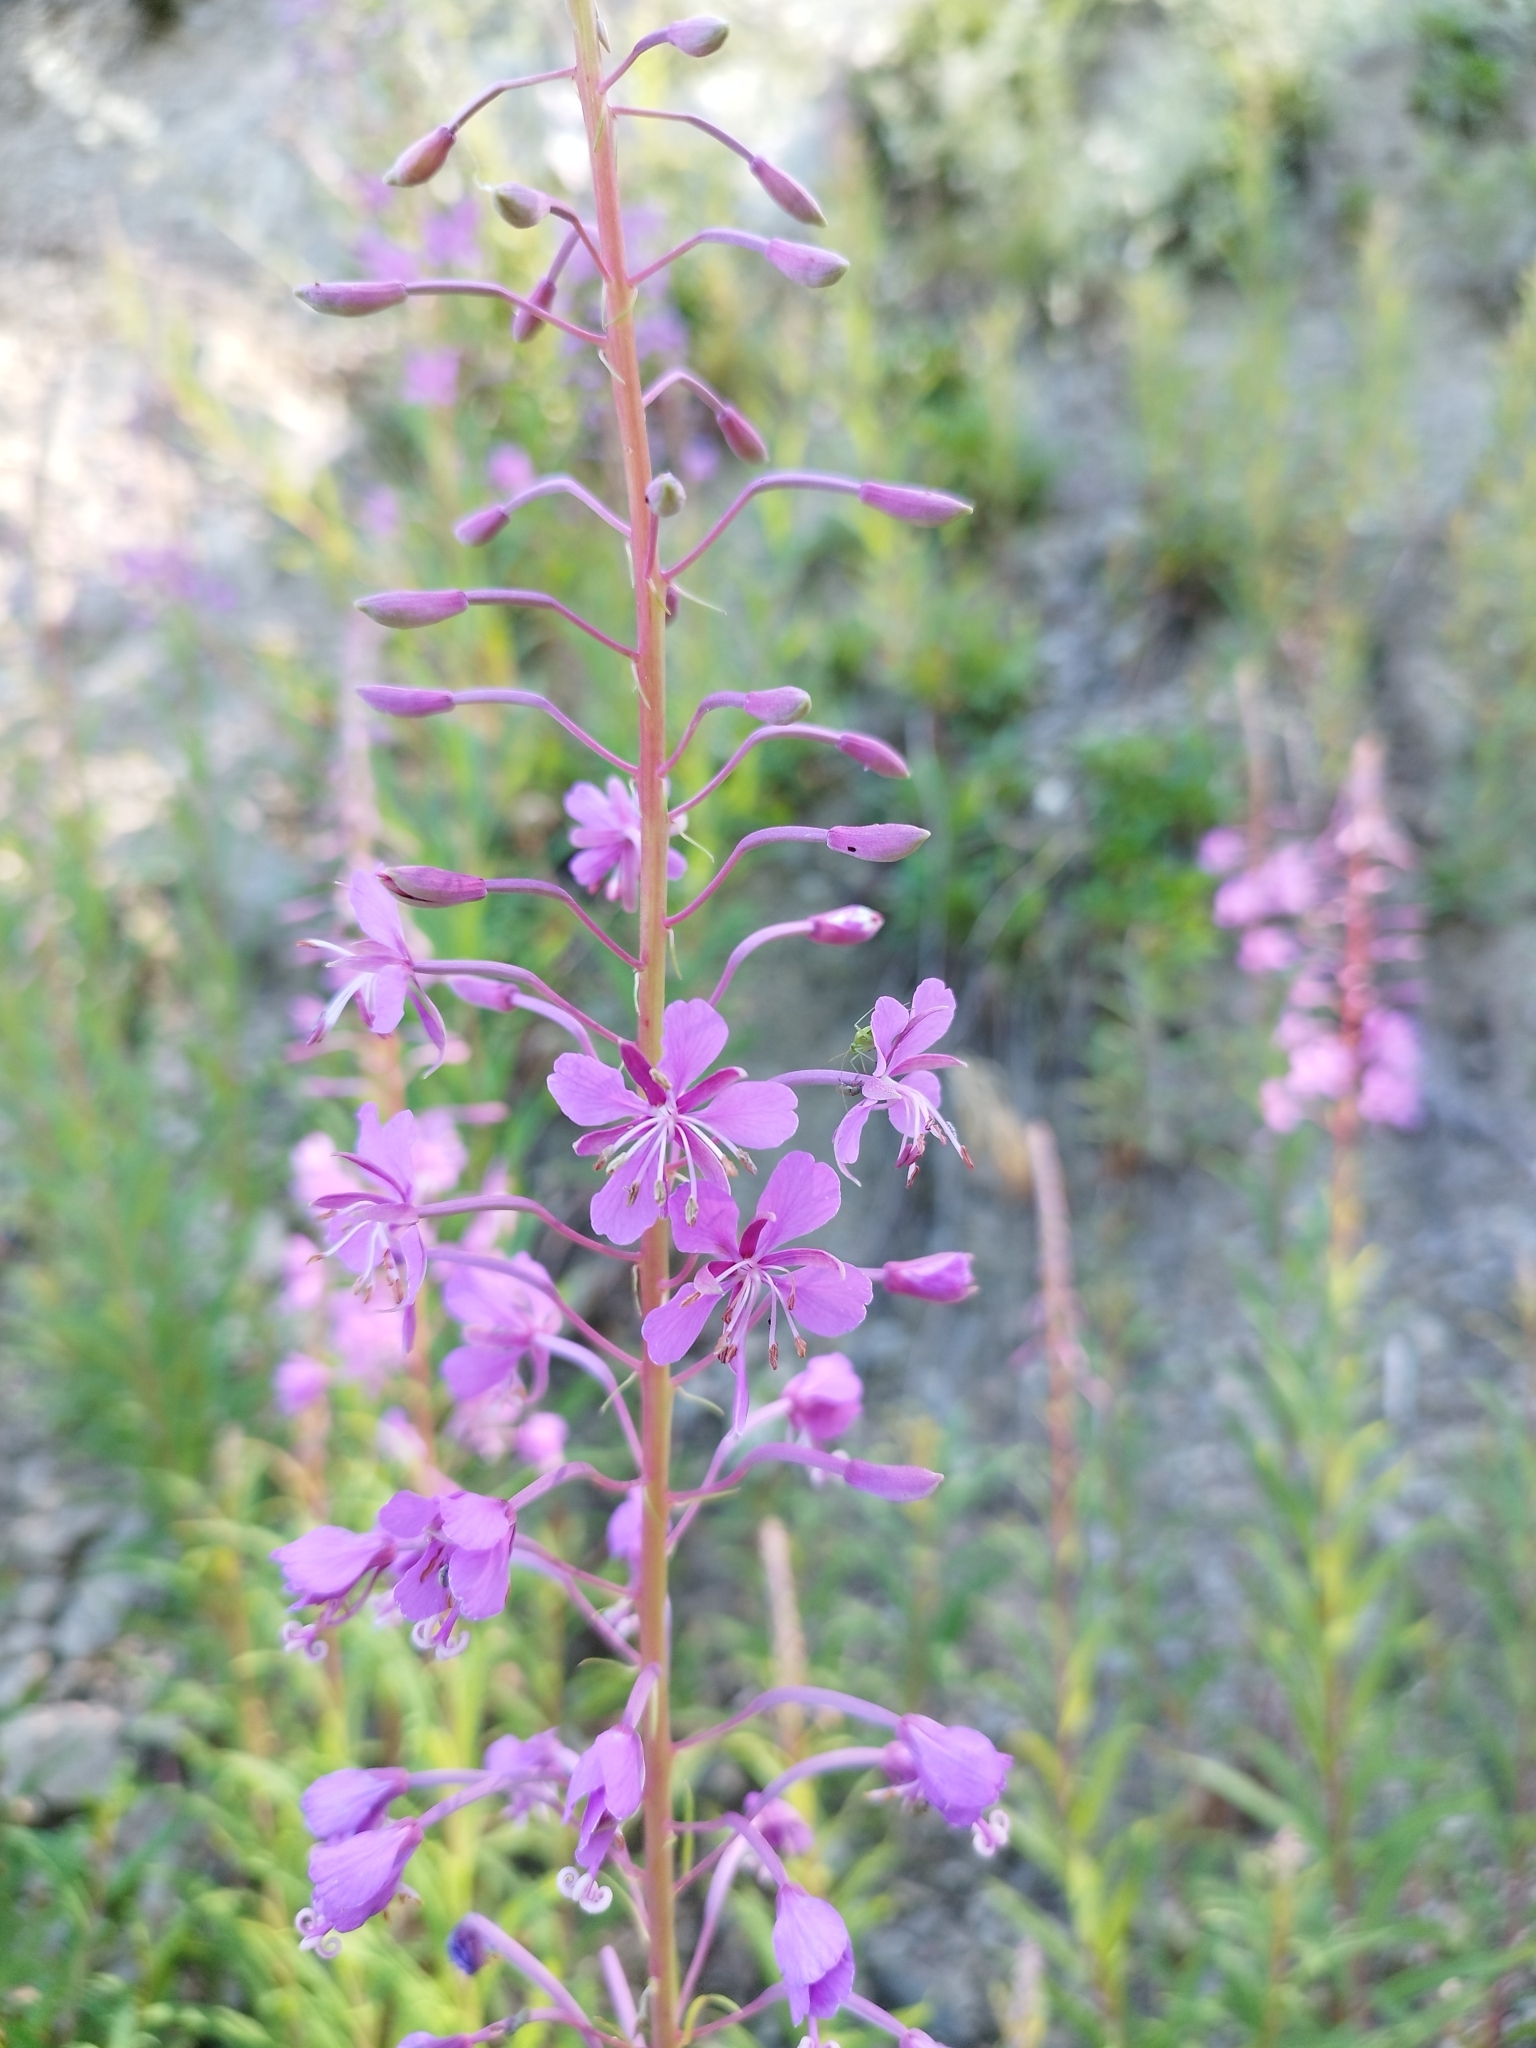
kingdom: Plantae
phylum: Tracheophyta
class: Magnoliopsida
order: Myrtales
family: Onagraceae
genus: Chamaenerion
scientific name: Chamaenerion angustifolium
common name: Fireweed
